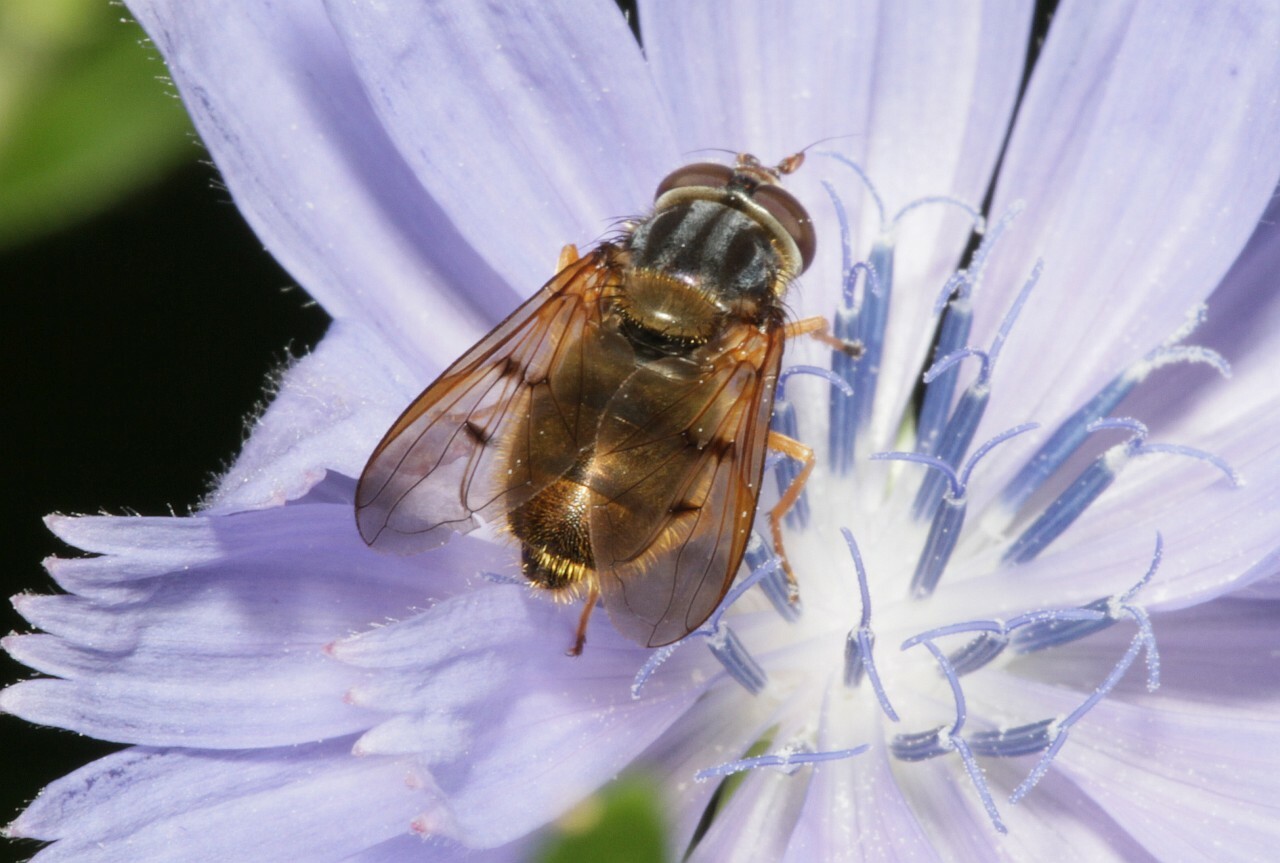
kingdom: Animalia
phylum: Arthropoda
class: Insecta
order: Diptera
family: Syrphidae
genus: Ferdinandea
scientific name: Ferdinandea cuprea
